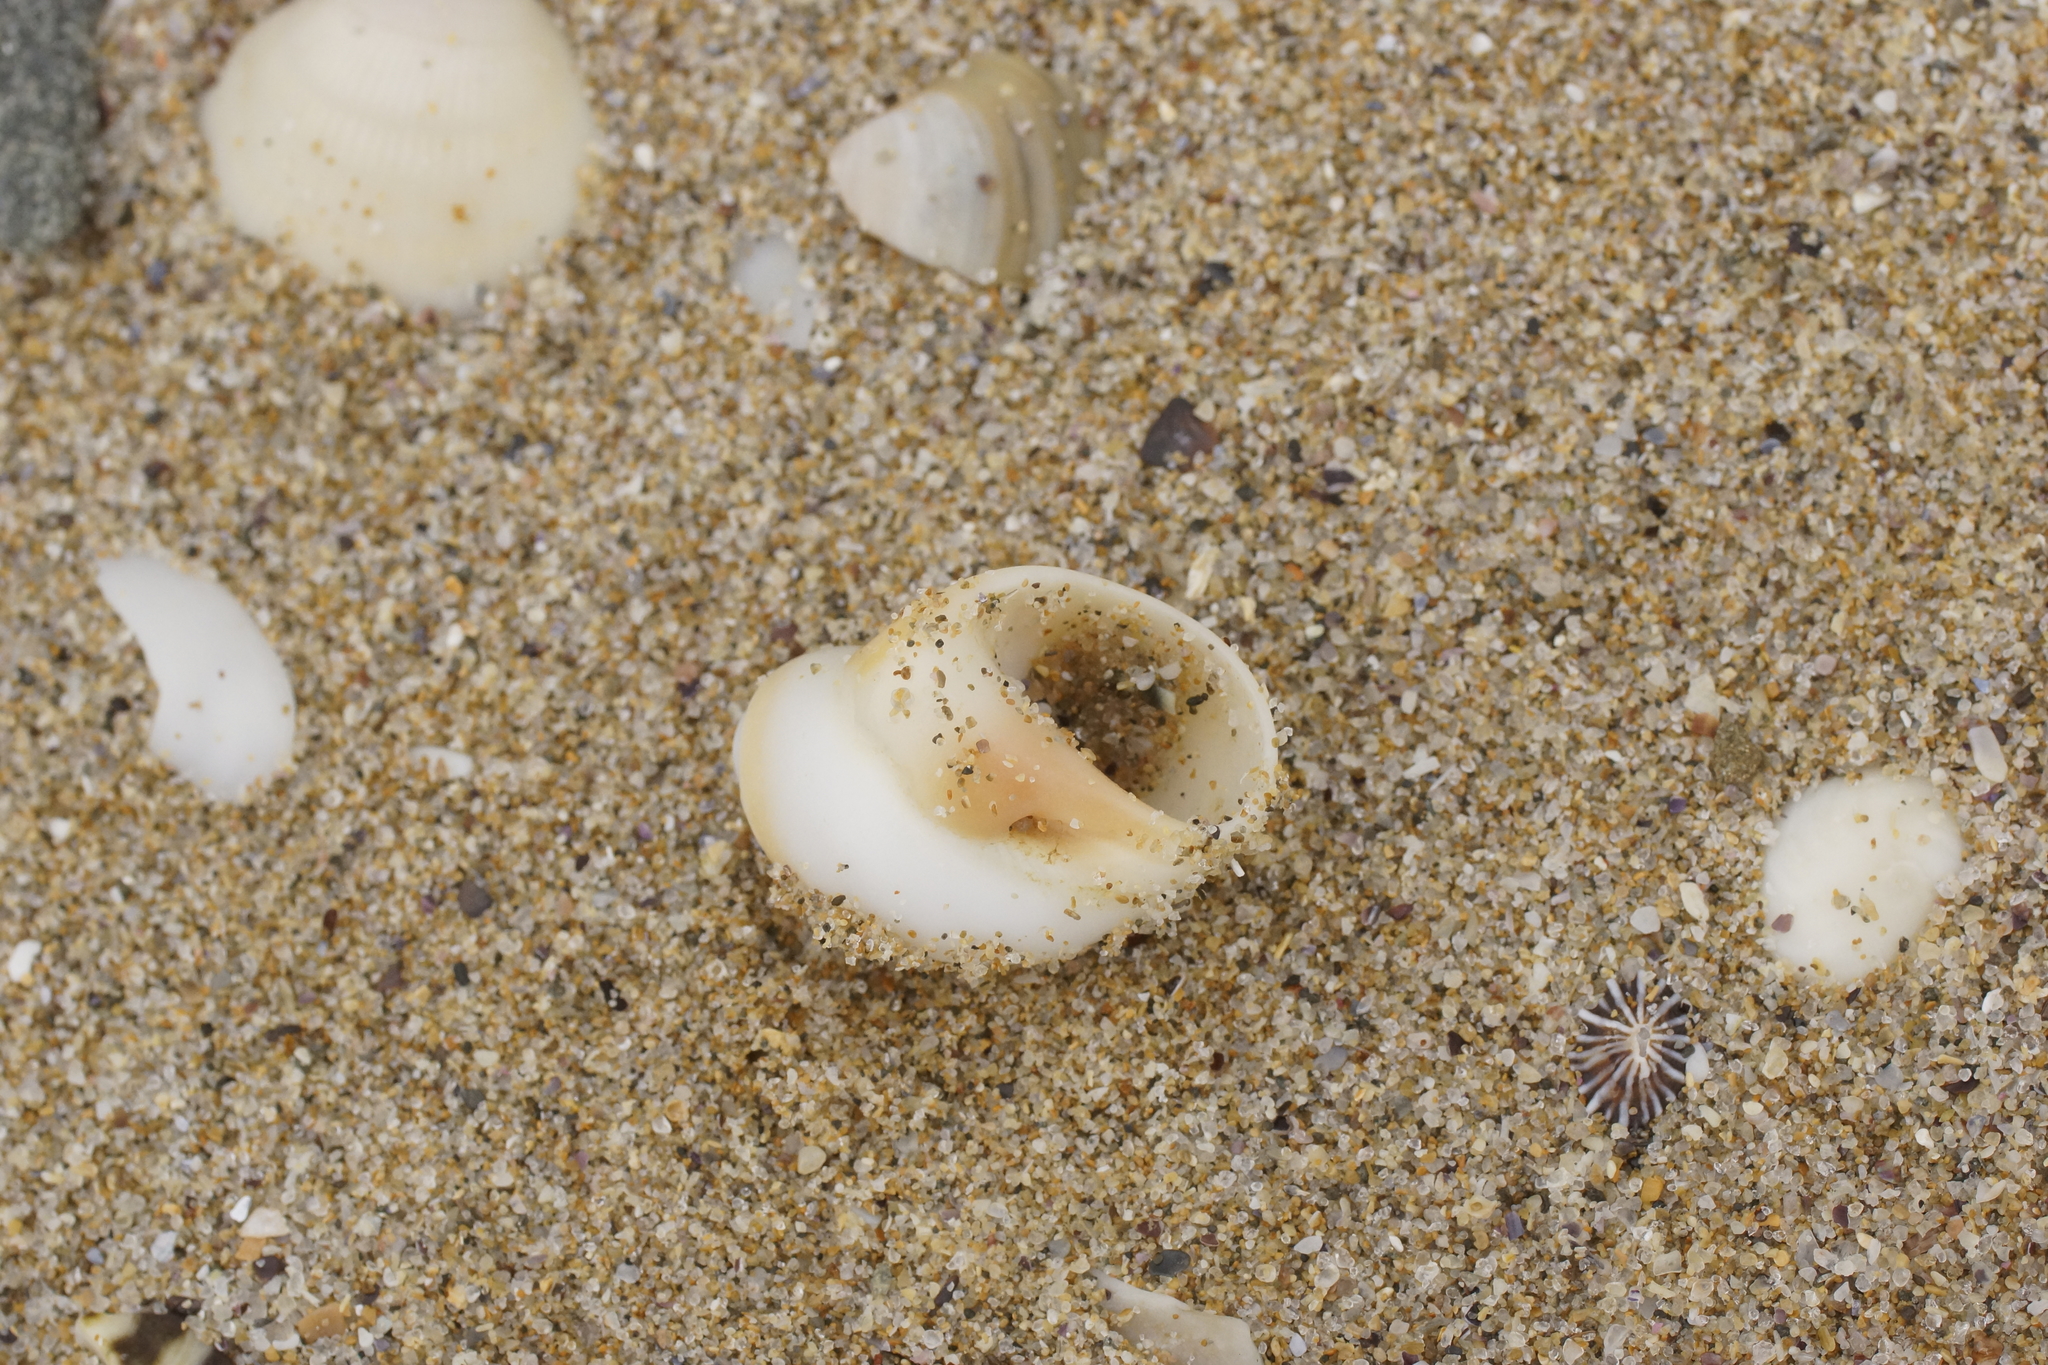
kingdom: Animalia
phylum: Mollusca
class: Gastropoda
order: Littorinimorpha
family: Naticidae
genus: Conuber
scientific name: Conuber conicum
